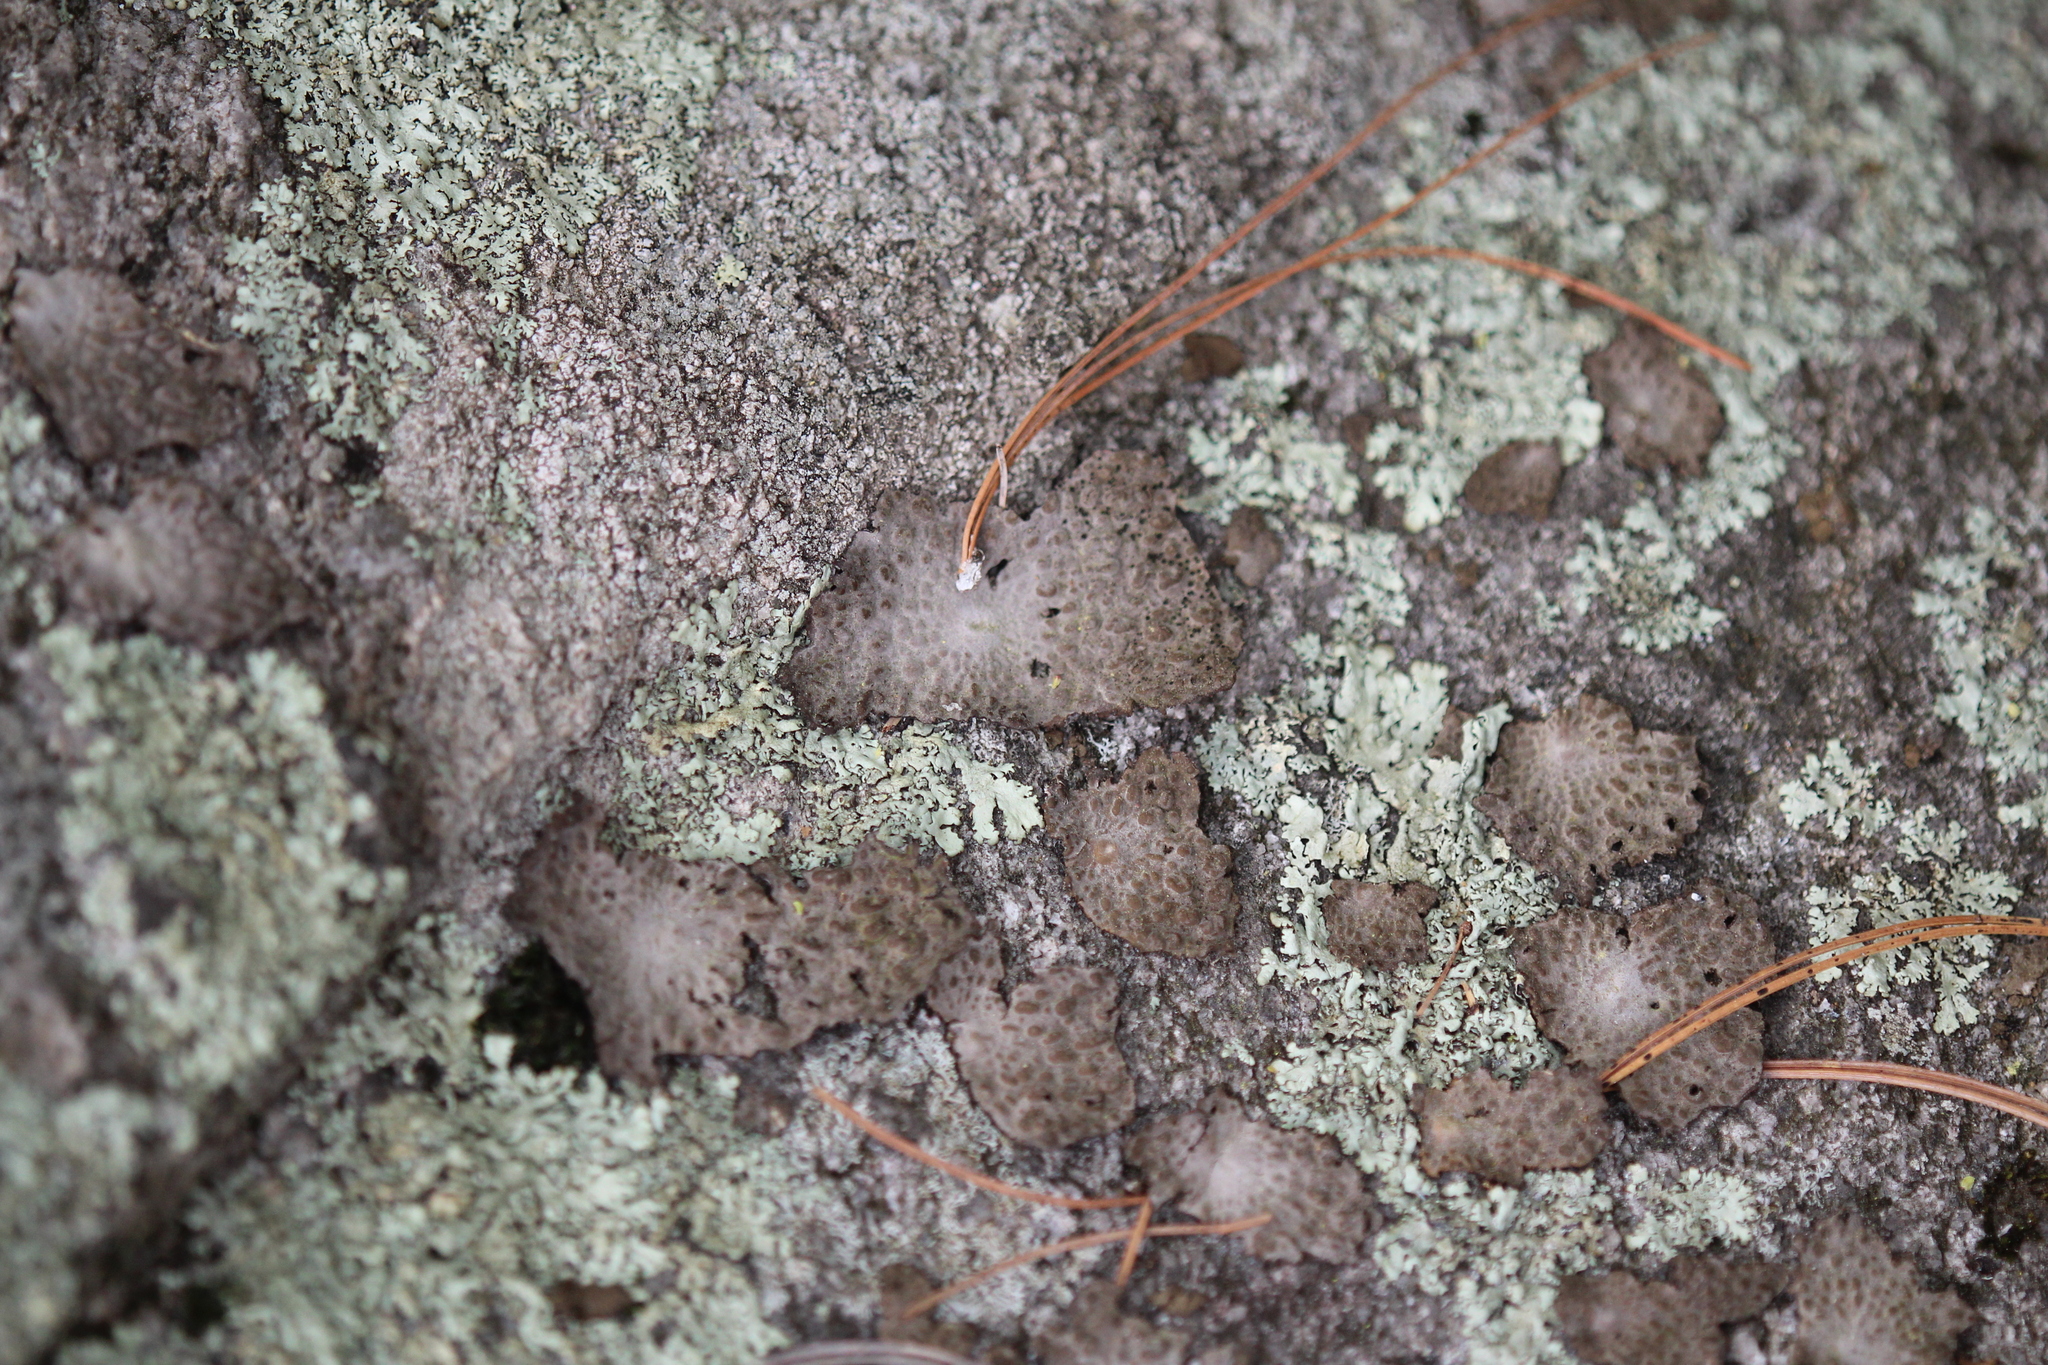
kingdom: Fungi
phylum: Ascomycota
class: Lecanoromycetes
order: Umbilicariales
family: Umbilicariaceae
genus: Lasallia
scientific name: Lasallia papulosa
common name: Common toadskin lichen
